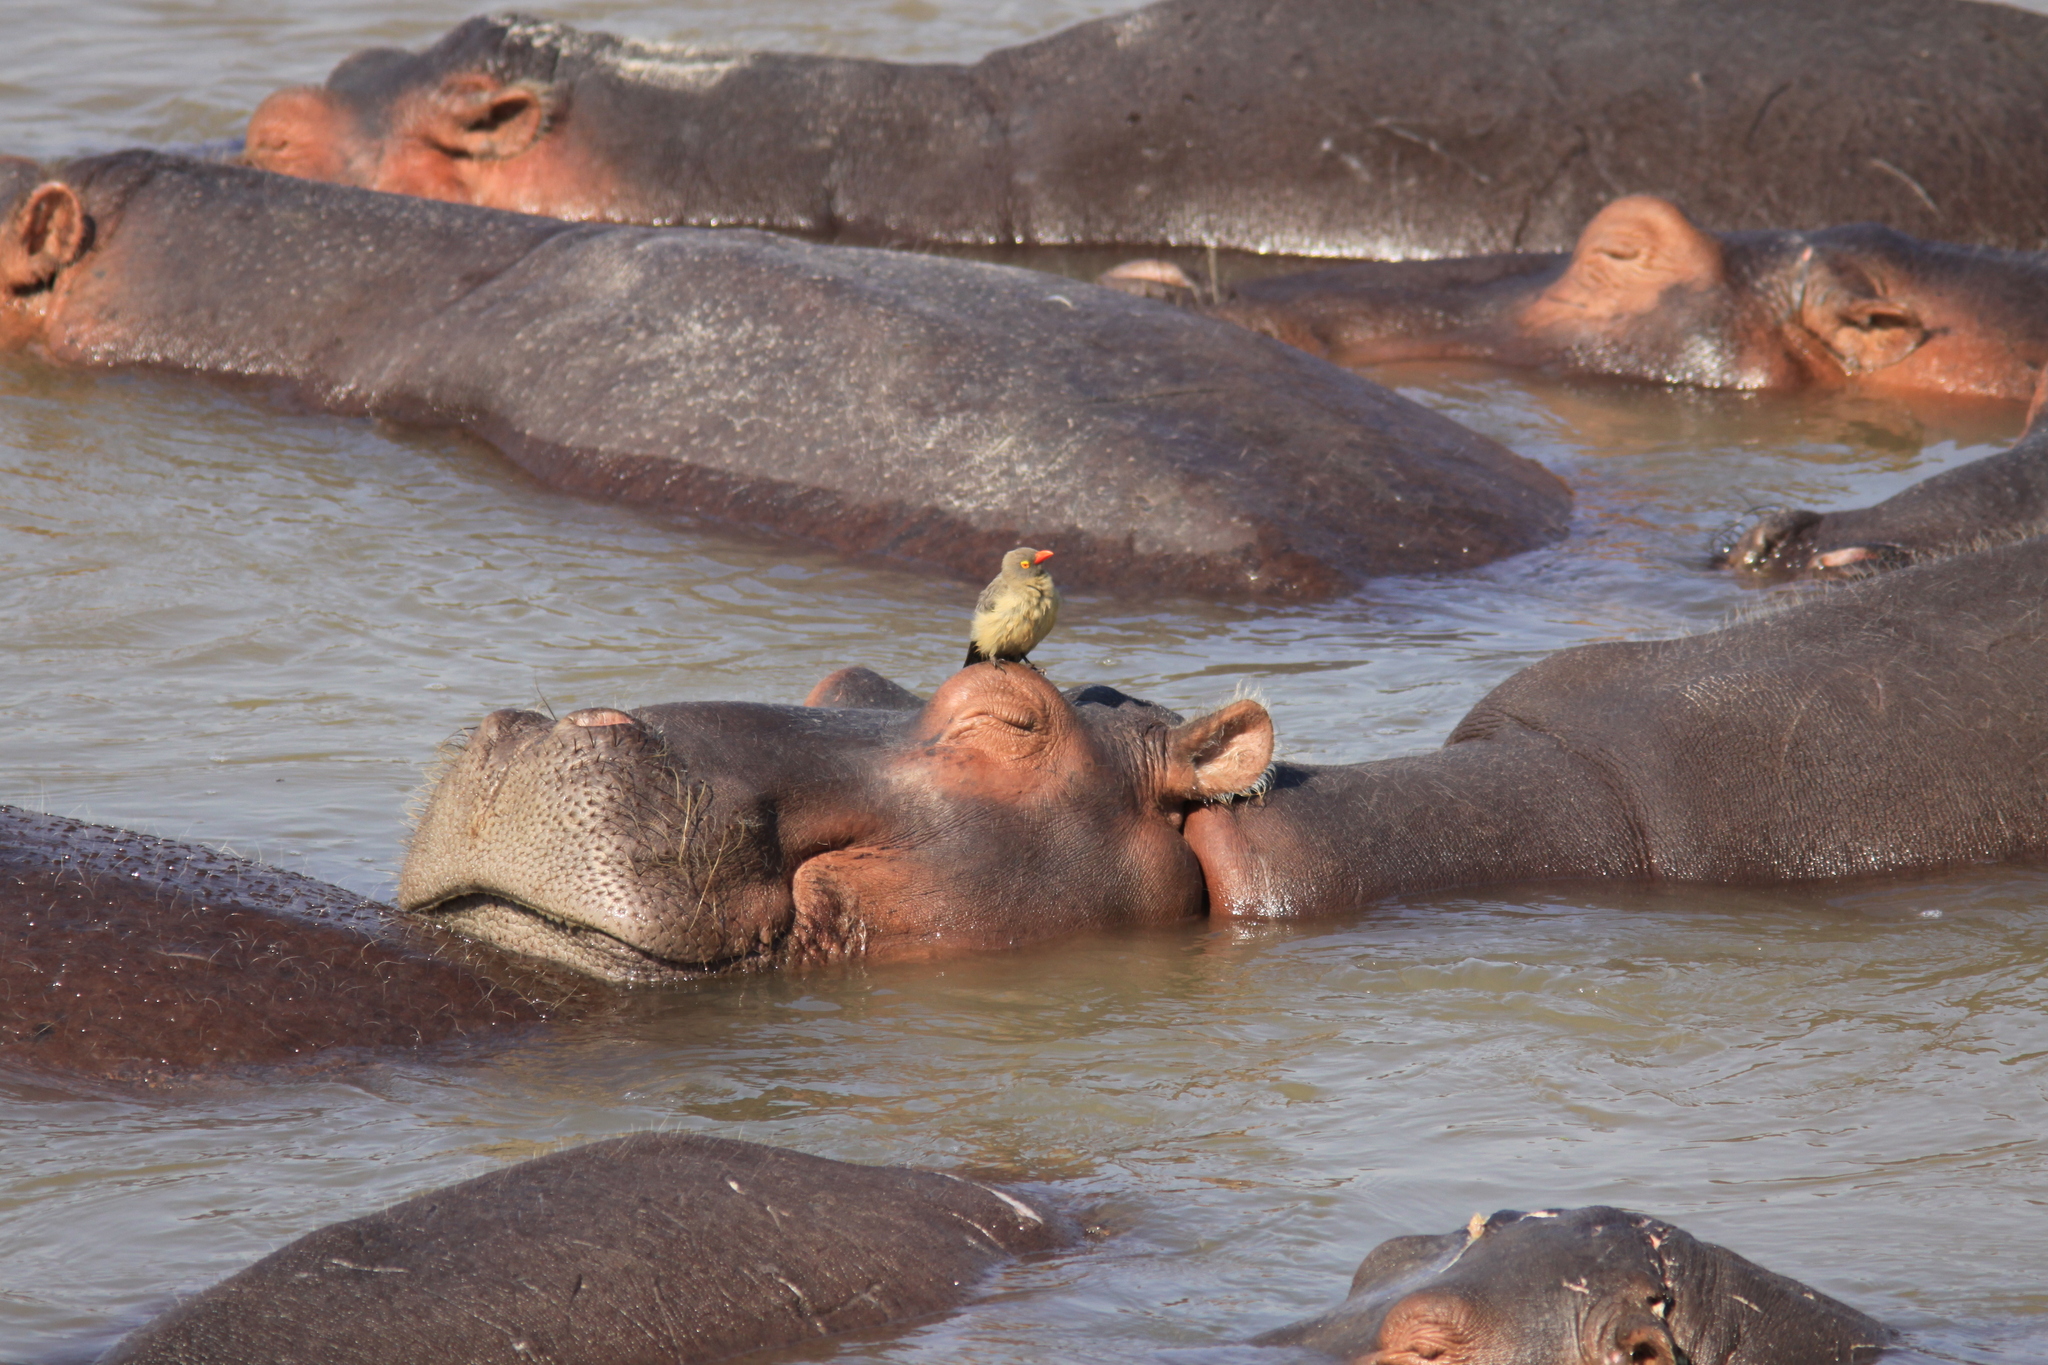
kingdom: Animalia
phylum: Chordata
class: Mammalia
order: Artiodactyla
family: Hippopotamidae
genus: Hippopotamus
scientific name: Hippopotamus amphibius
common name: Common hippopotamus
